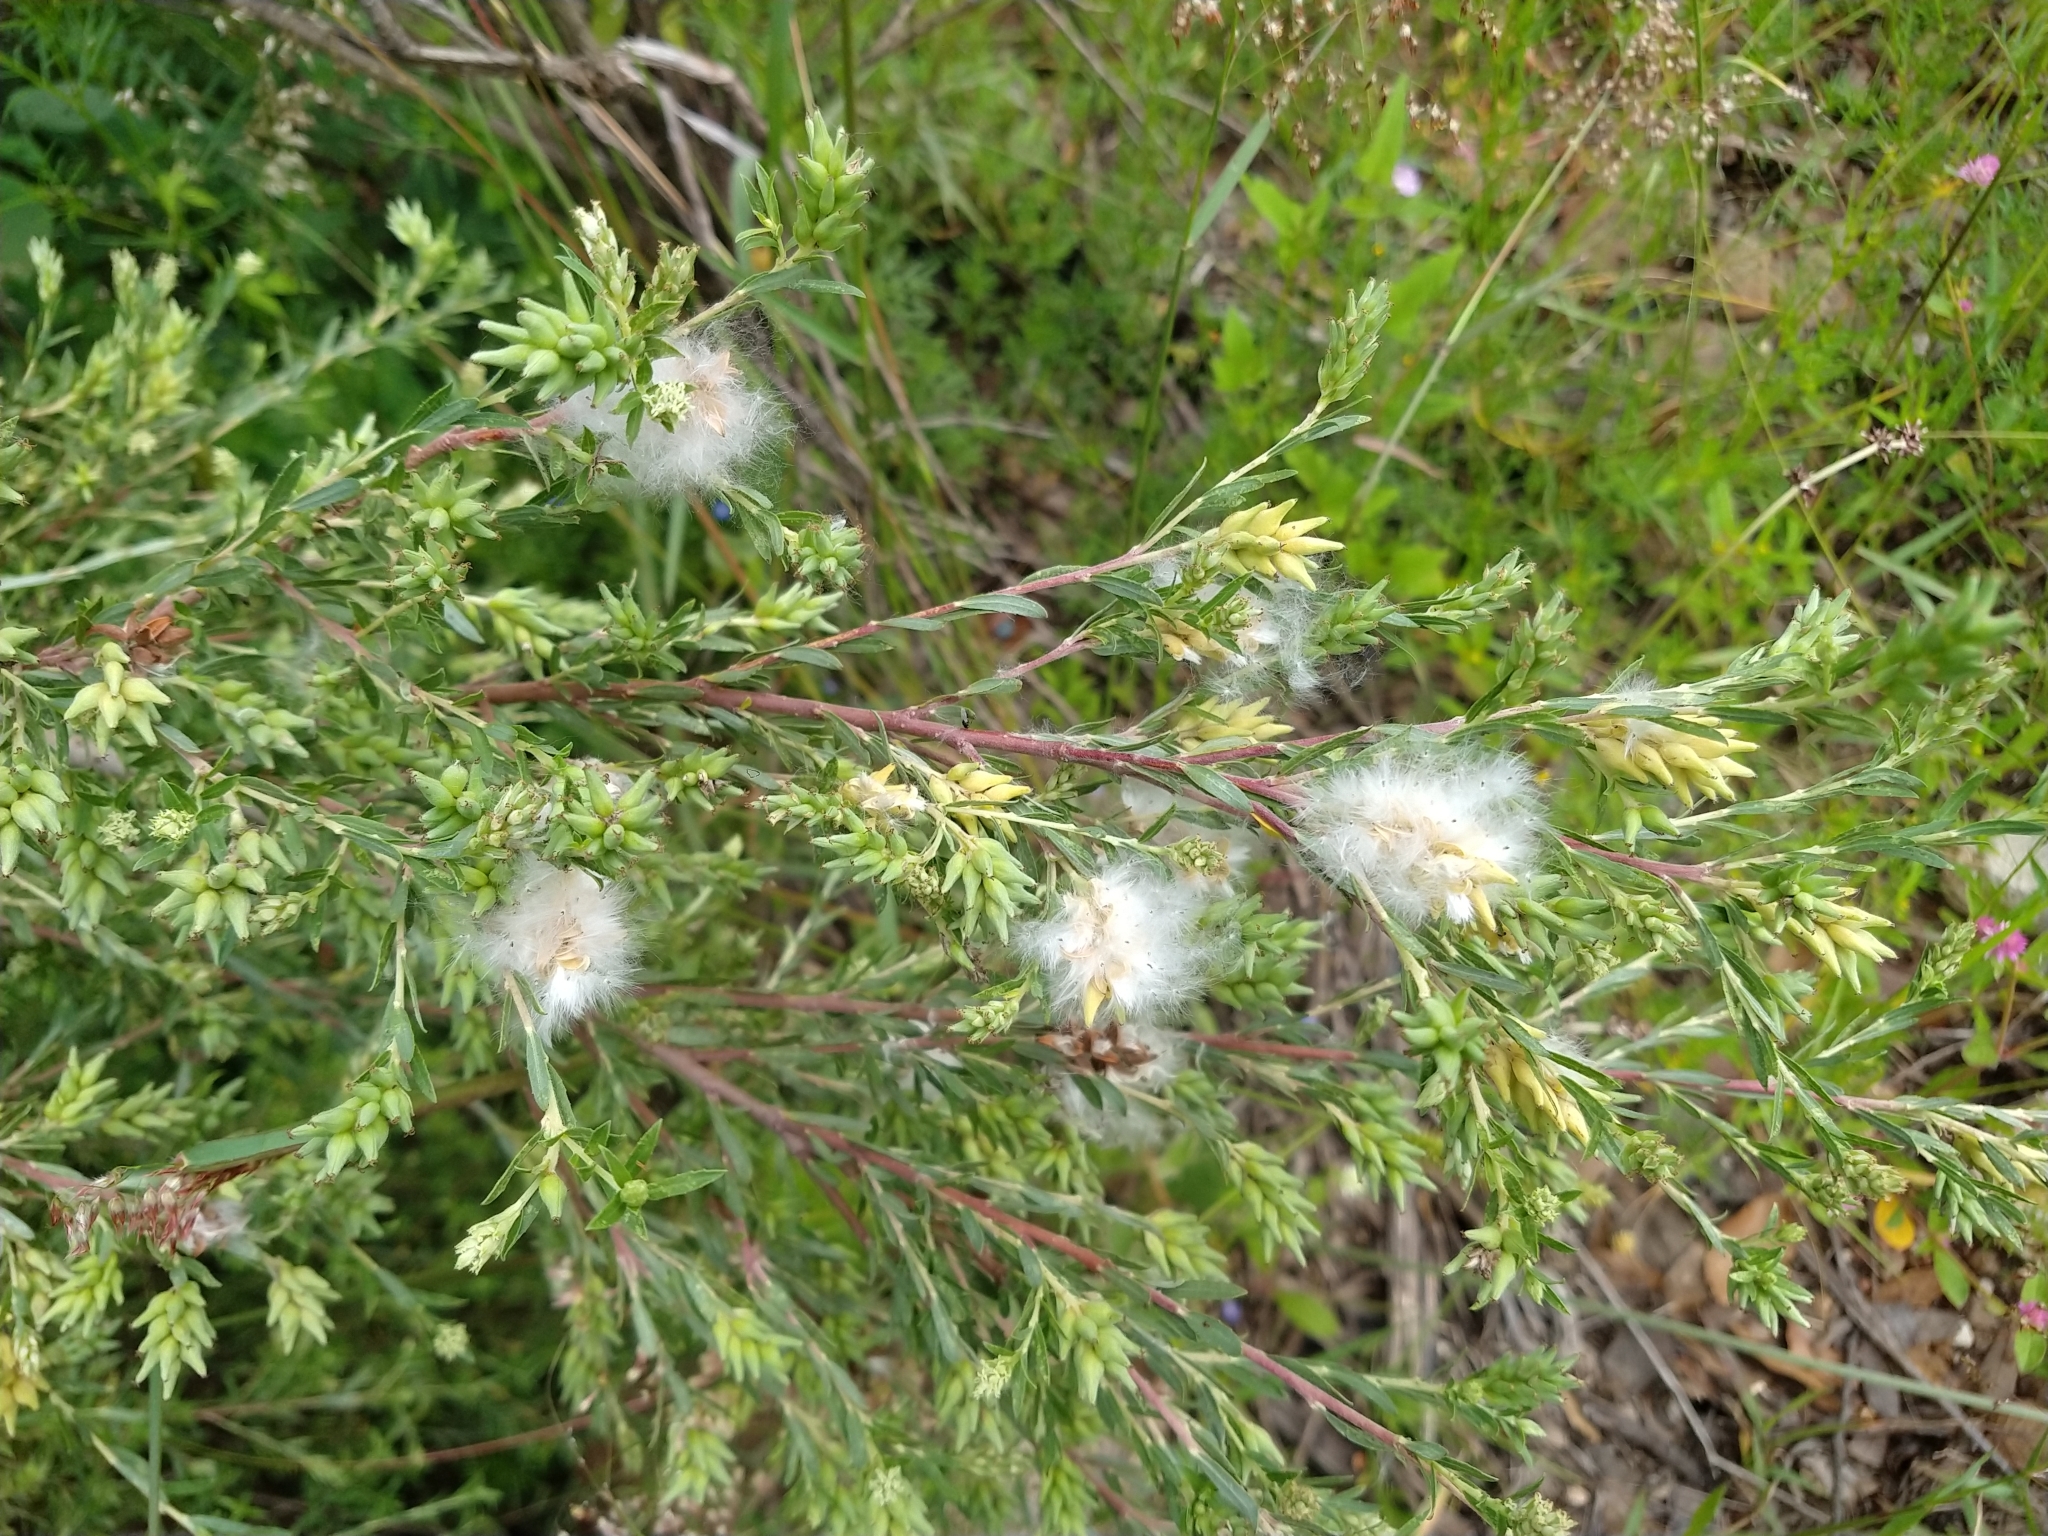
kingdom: Plantae
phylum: Tracheophyta
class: Magnoliopsida
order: Malpighiales
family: Salicaceae
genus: Salix
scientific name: Salix taxifolia
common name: Yew-leaf willow
